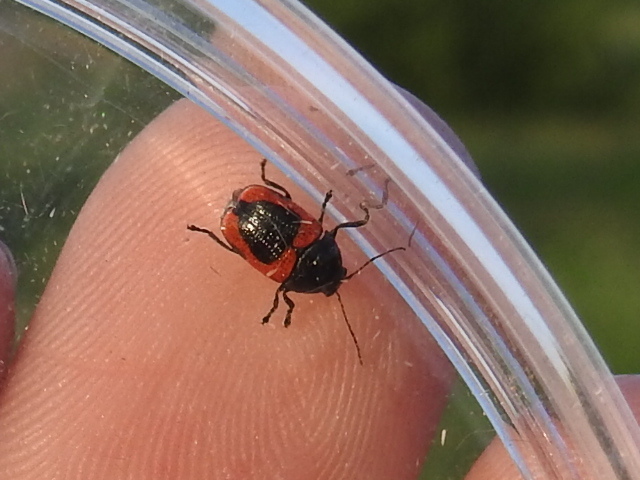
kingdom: Animalia
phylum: Arthropoda
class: Insecta
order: Coleoptera
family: Chrysomelidae
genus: Cryptocephalus
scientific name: Cryptocephalus notatus
